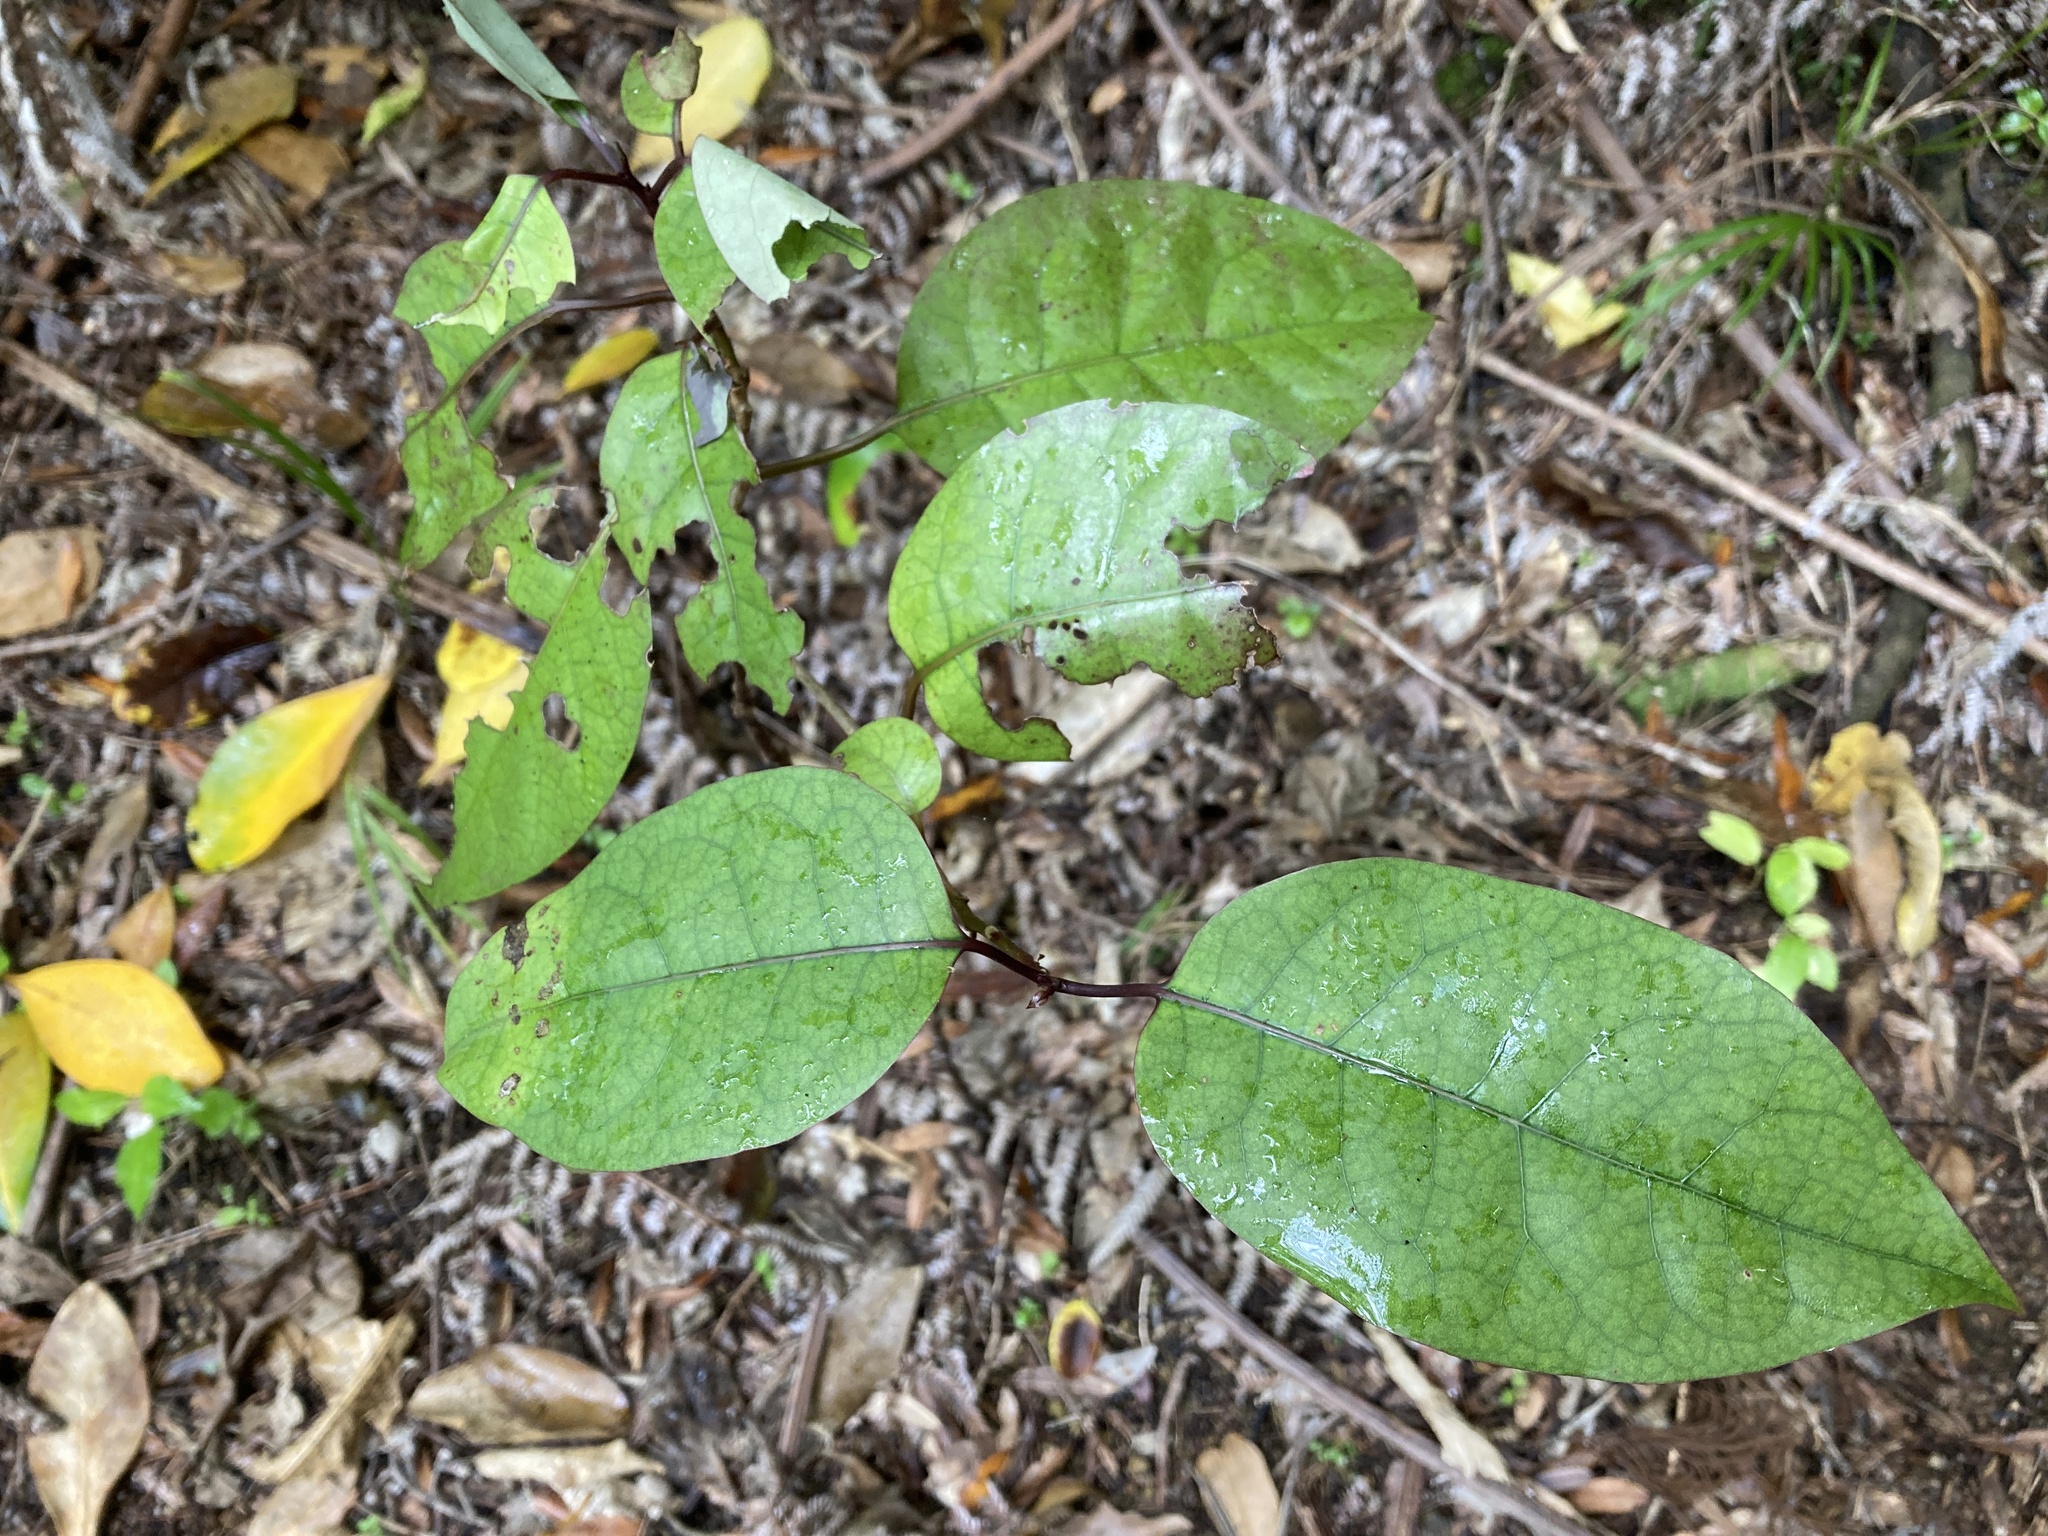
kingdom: Plantae
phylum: Tracheophyta
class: Magnoliopsida
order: Laurales
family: Lauraceae
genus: Litsea
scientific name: Litsea calicaris
